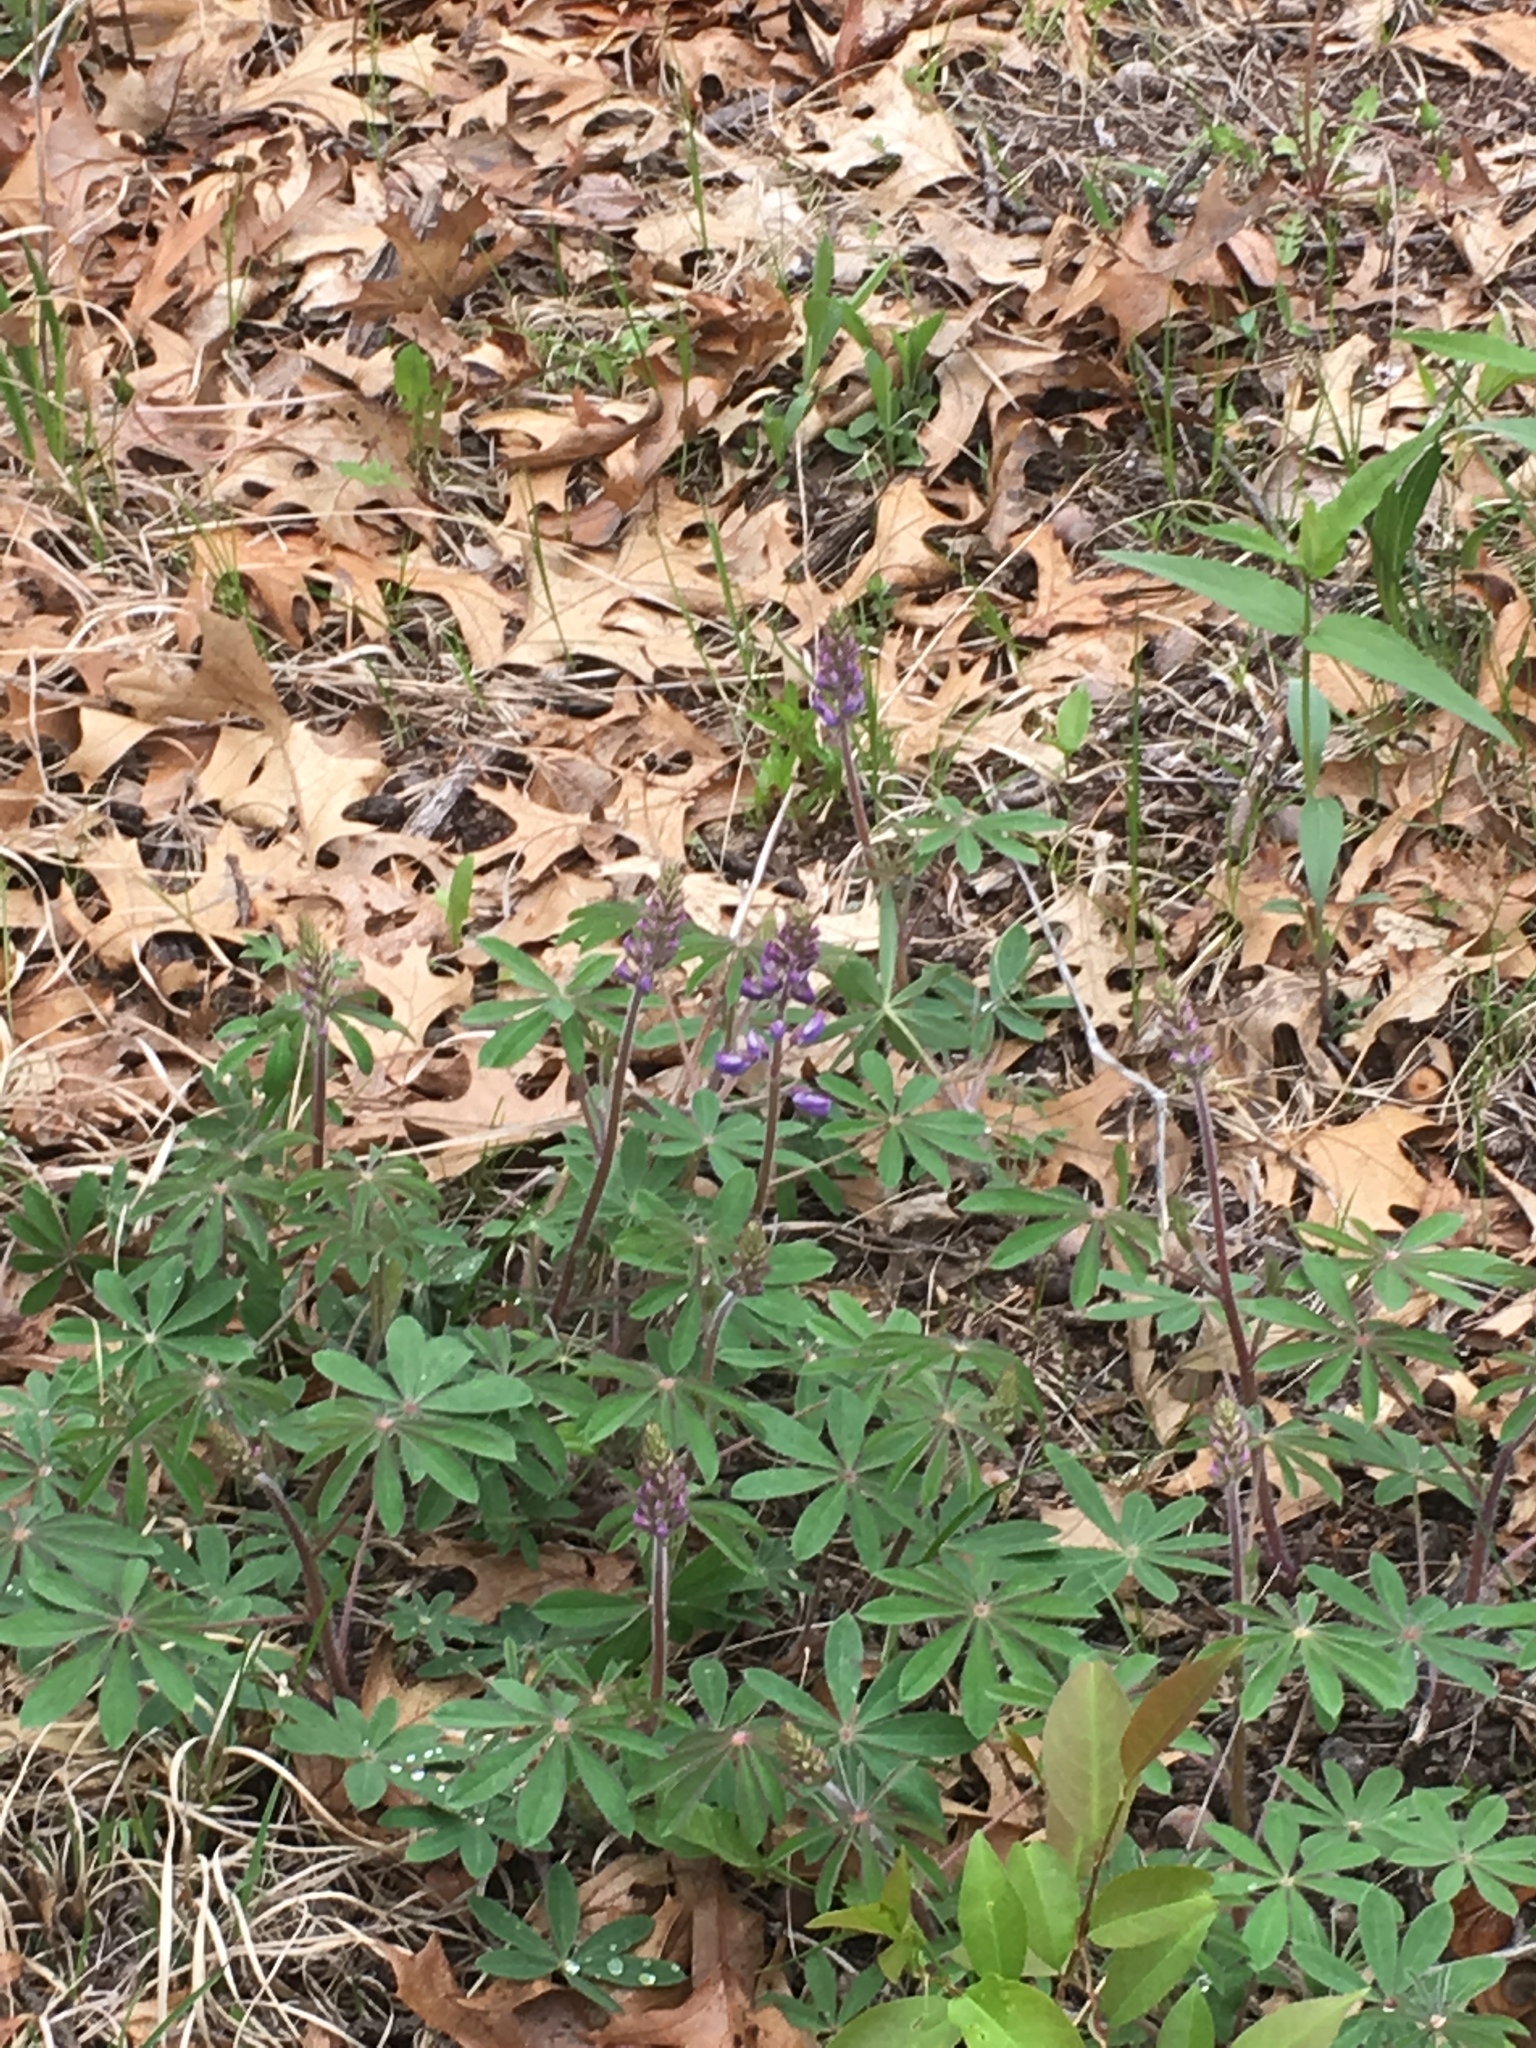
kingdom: Plantae
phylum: Tracheophyta
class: Magnoliopsida
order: Fabales
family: Fabaceae
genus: Lupinus
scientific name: Lupinus perennis
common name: Sundial lupine
